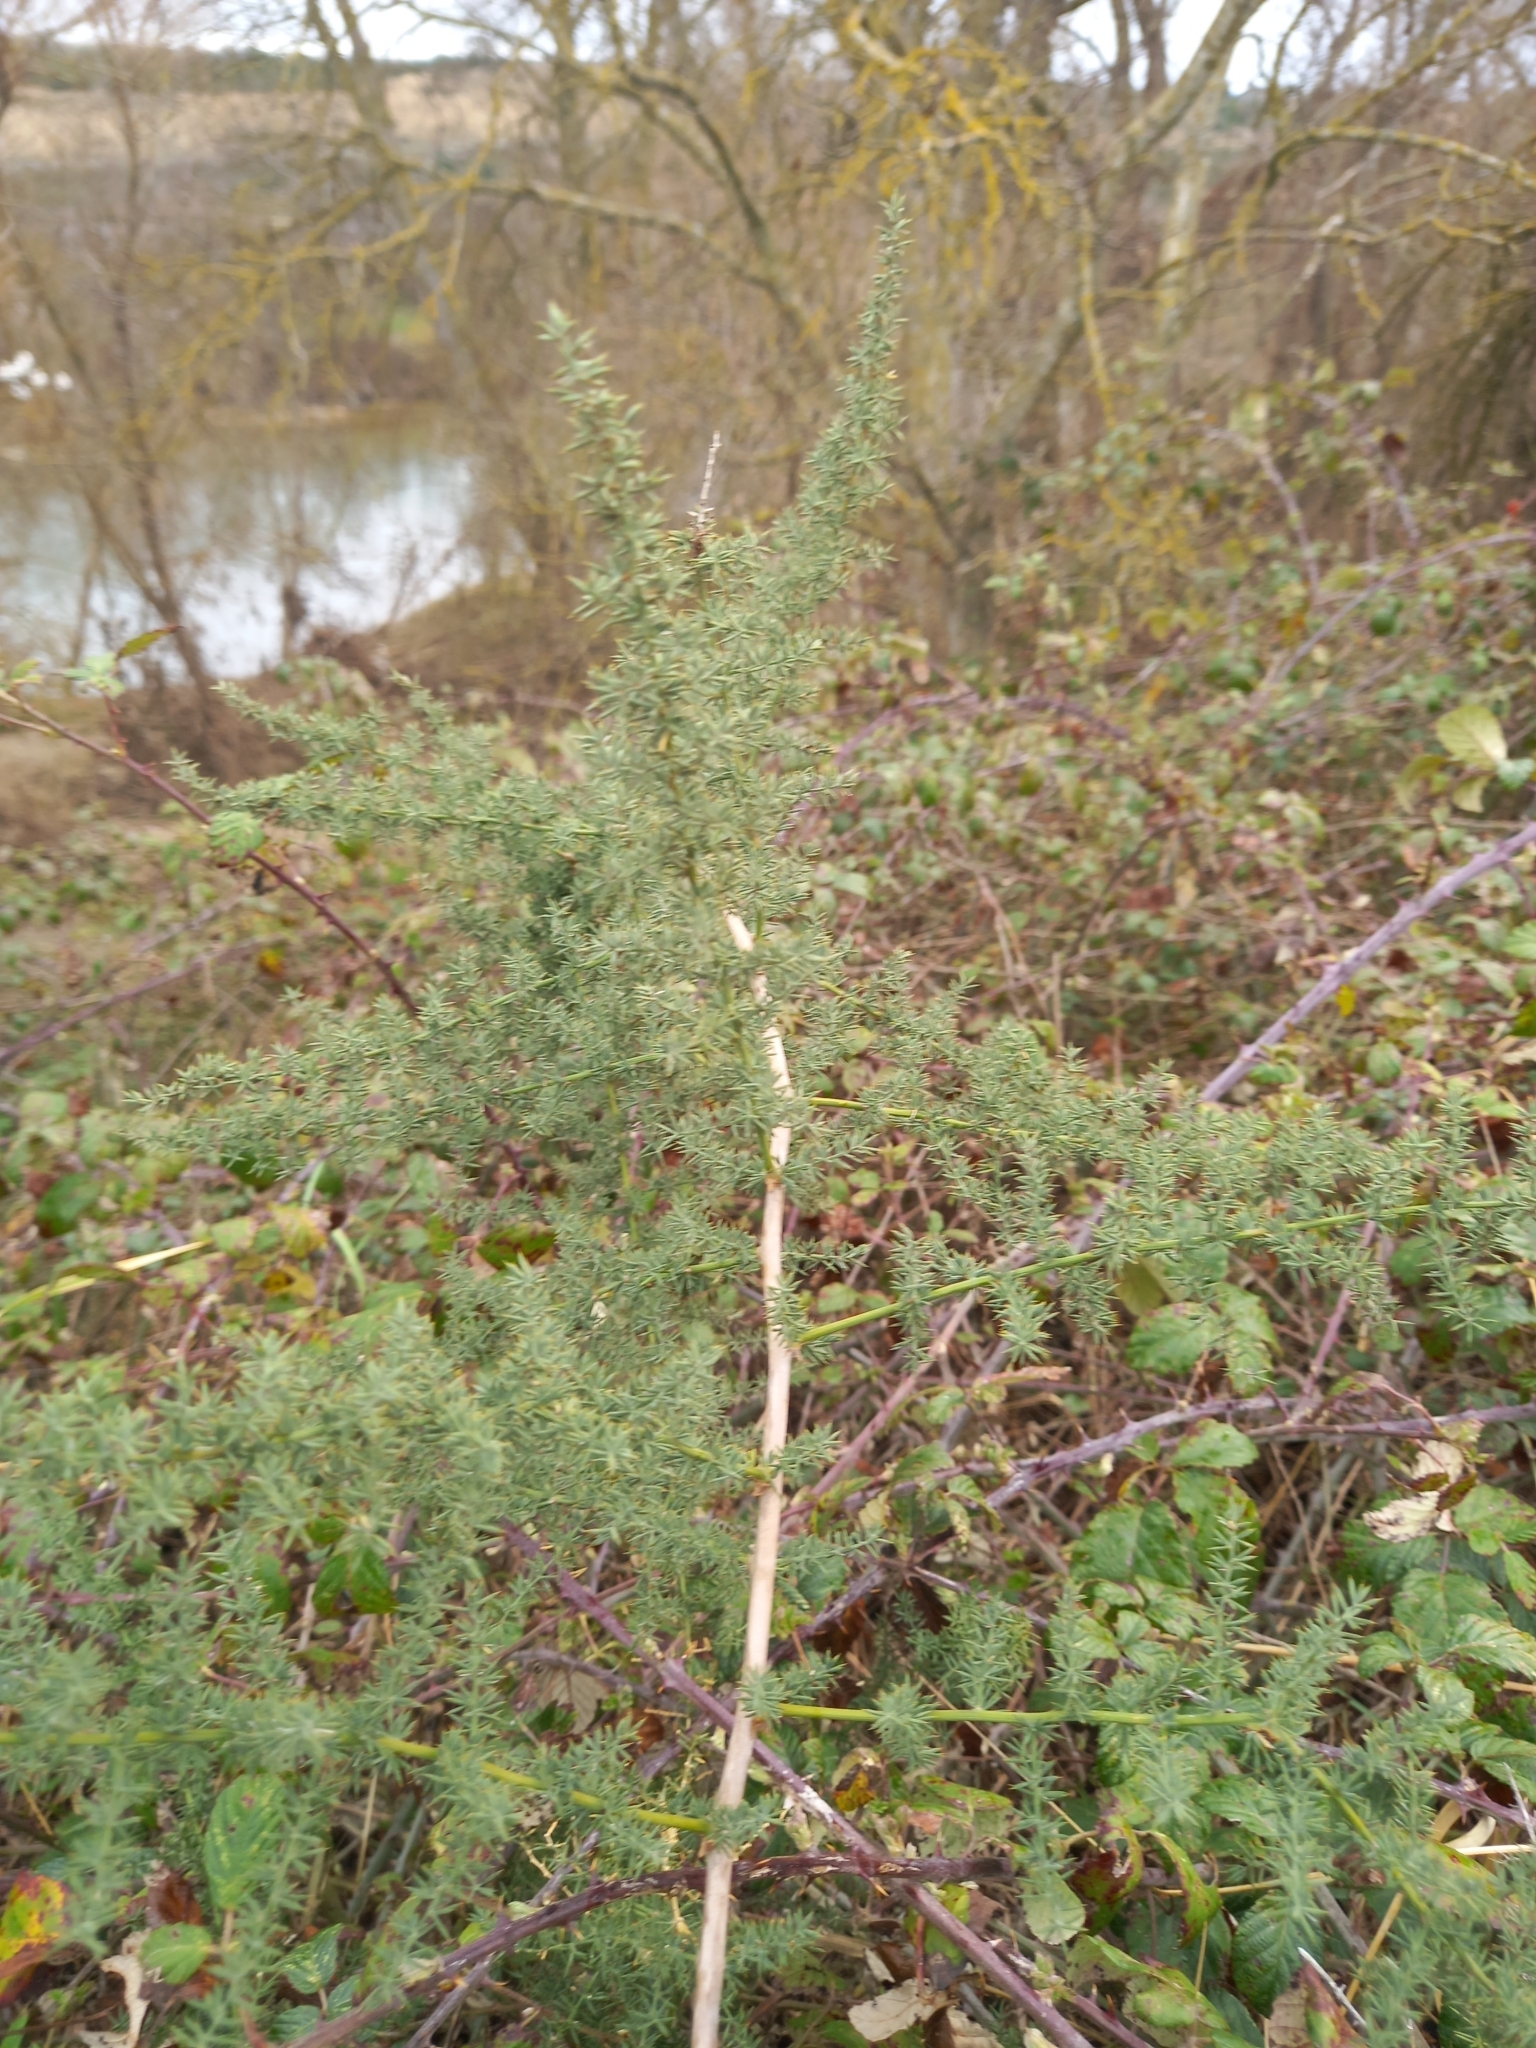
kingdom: Plantae
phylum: Tracheophyta
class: Liliopsida
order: Asparagales
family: Asparagaceae
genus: Asparagus
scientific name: Asparagus acutifolius
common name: Wild asparagus
